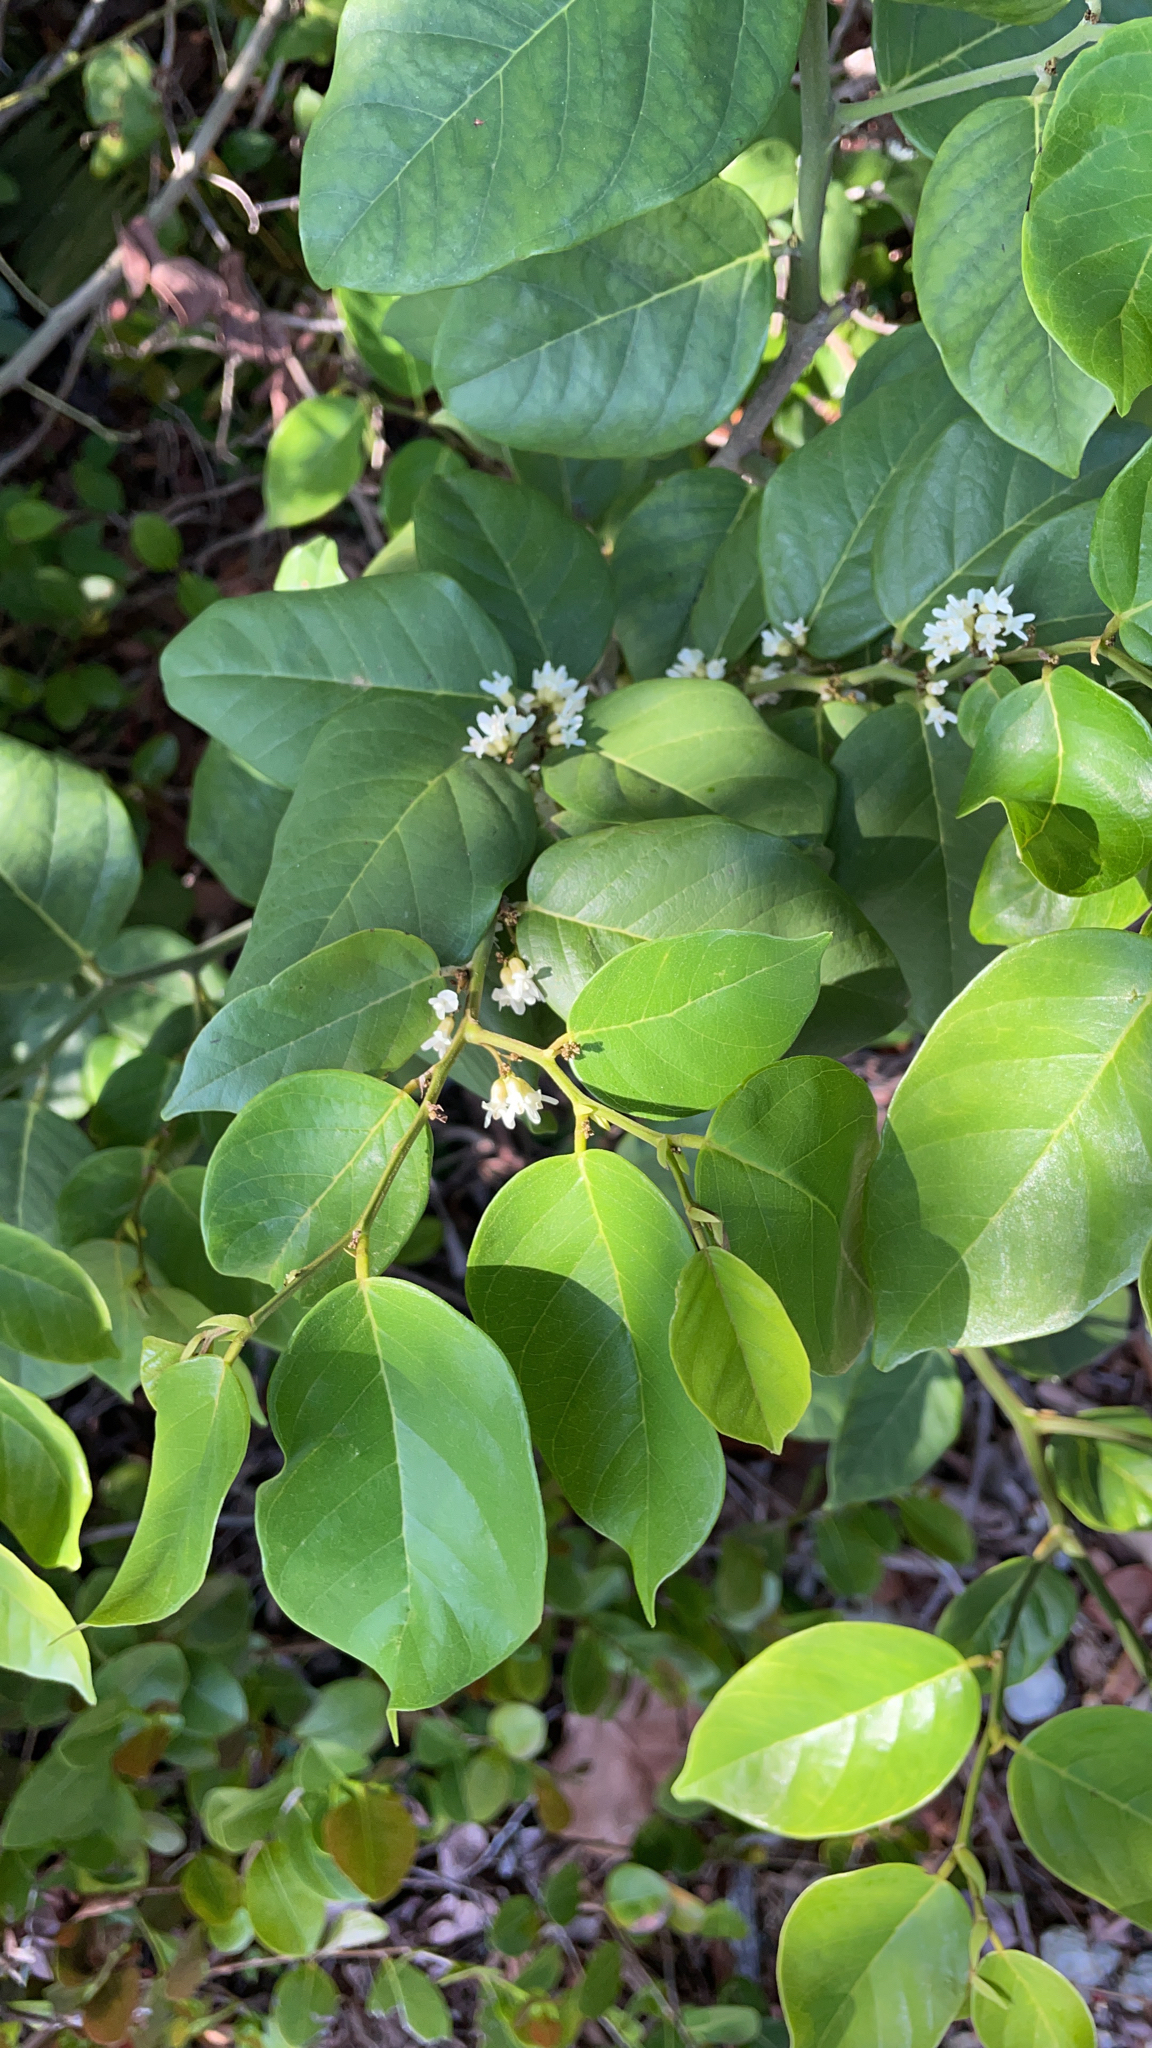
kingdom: Plantae
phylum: Tracheophyta
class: Magnoliopsida
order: Fabales
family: Fabaceae
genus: Dalbergia
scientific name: Dalbergia ecastaphyllum
